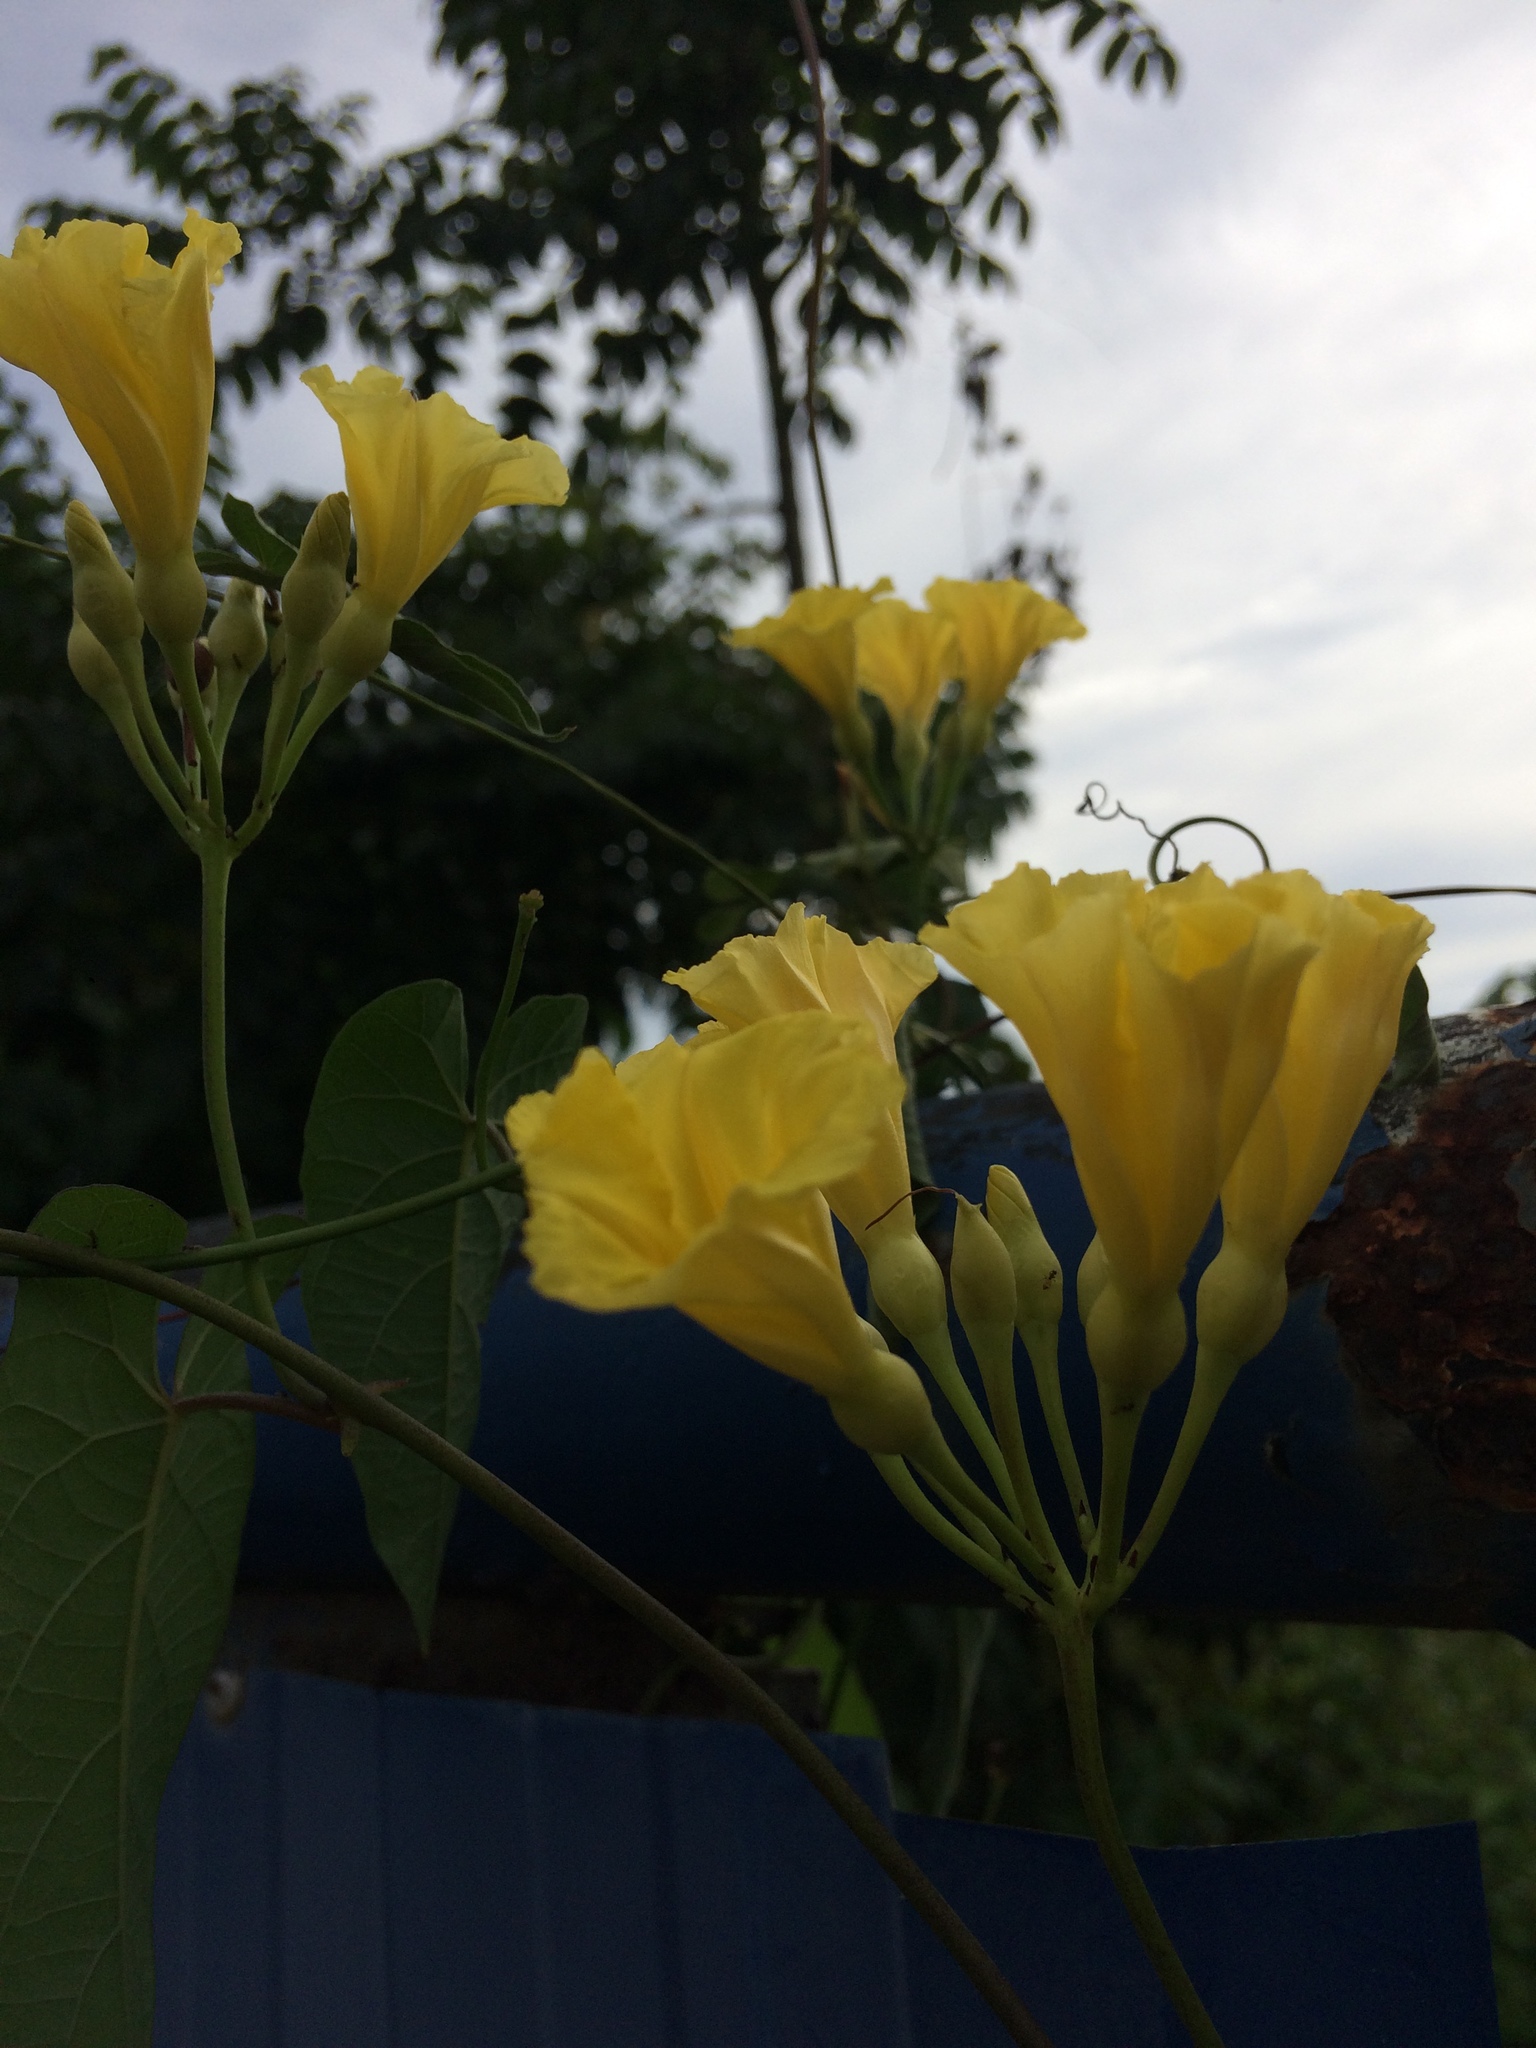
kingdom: Plantae
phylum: Tracheophyta
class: Magnoliopsida
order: Solanales
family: Convolvulaceae
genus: Camonea
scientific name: Camonea umbellata
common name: Hogvine
